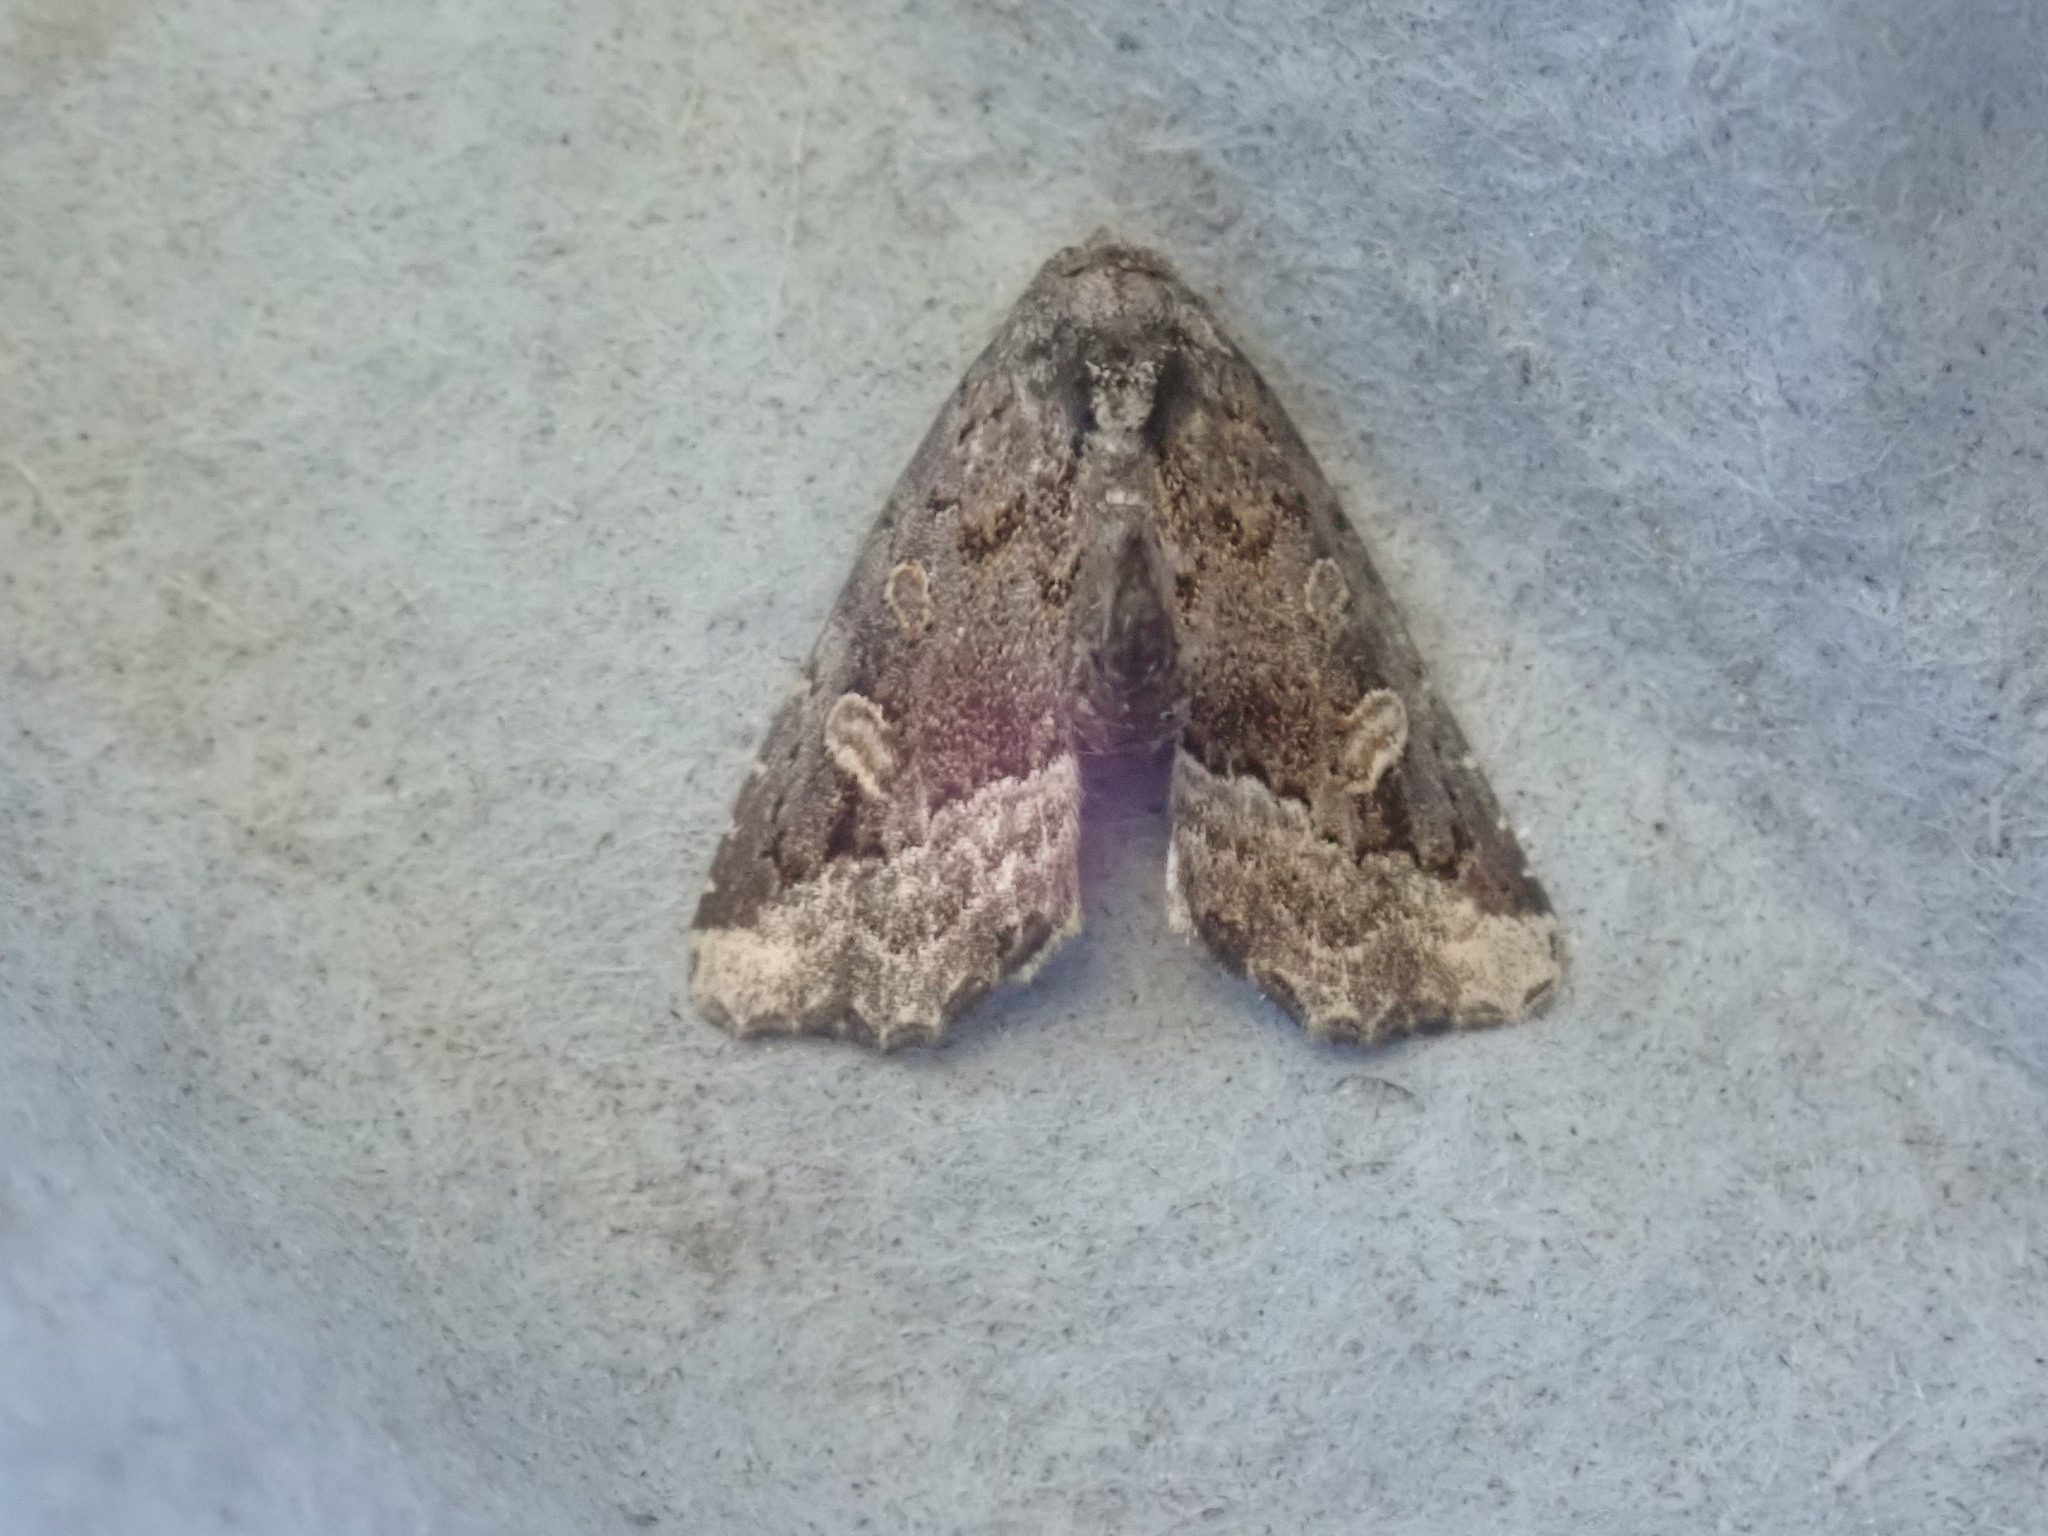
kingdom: Animalia
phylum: Arthropoda
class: Insecta
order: Lepidoptera
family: Noctuidae
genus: Homophoberia
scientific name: Homophoberia apicosa
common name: Black wedge-spot
